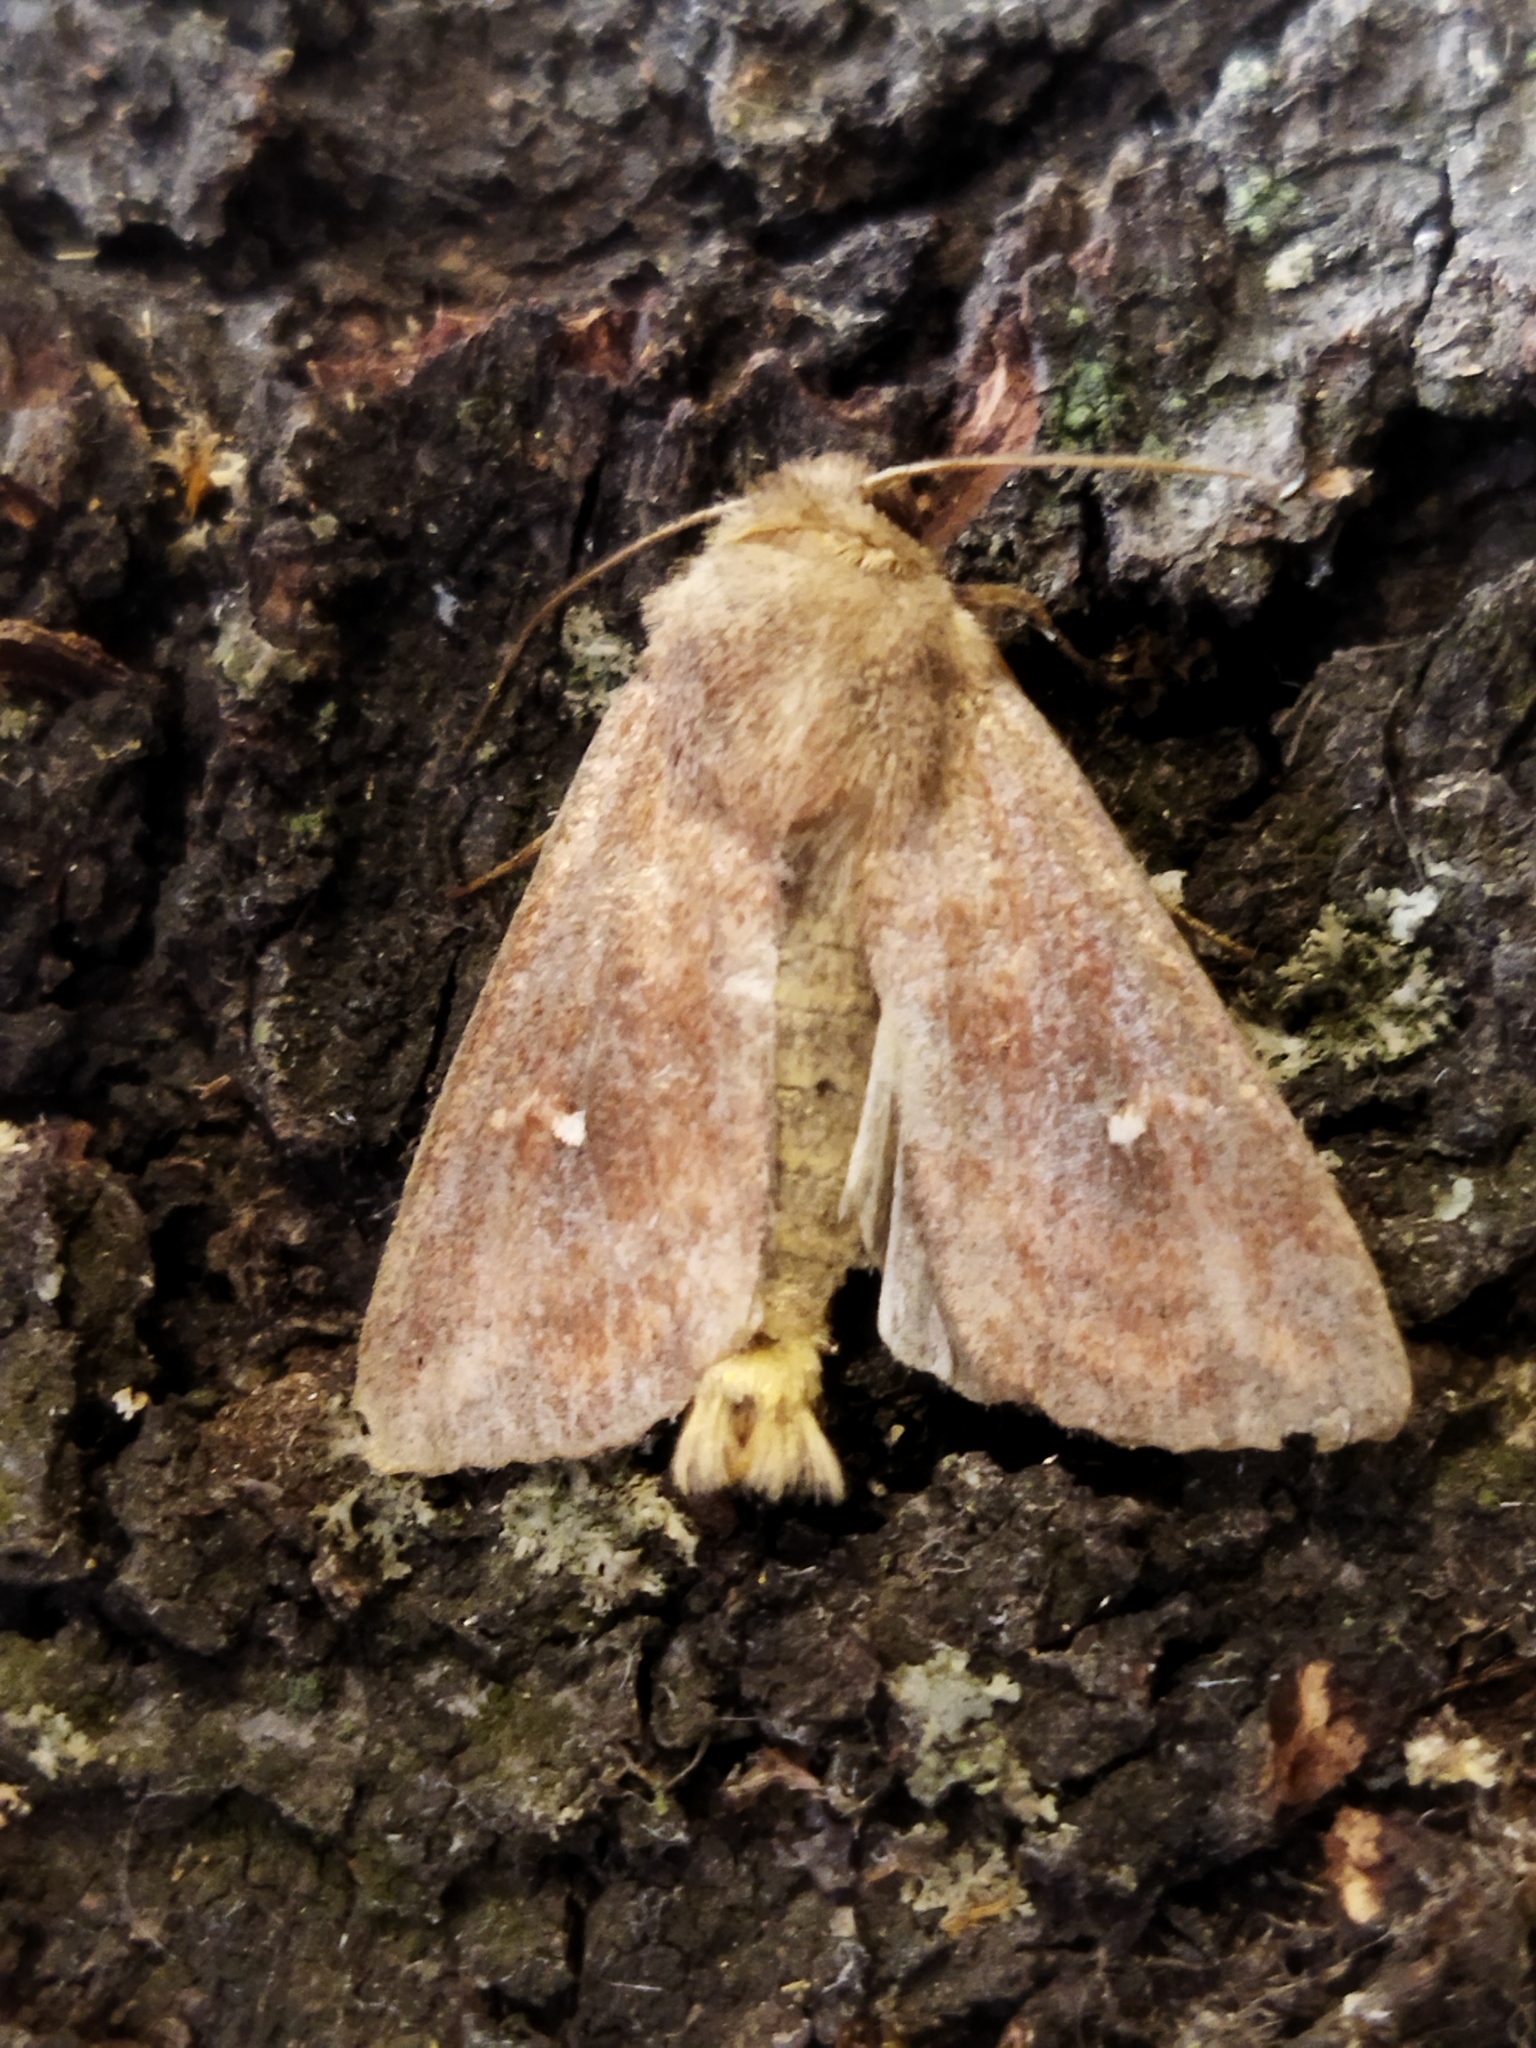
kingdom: Animalia
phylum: Arthropoda
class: Insecta
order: Lepidoptera
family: Noctuidae
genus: Mythimna
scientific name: Mythimna albipuncta
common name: White-point
